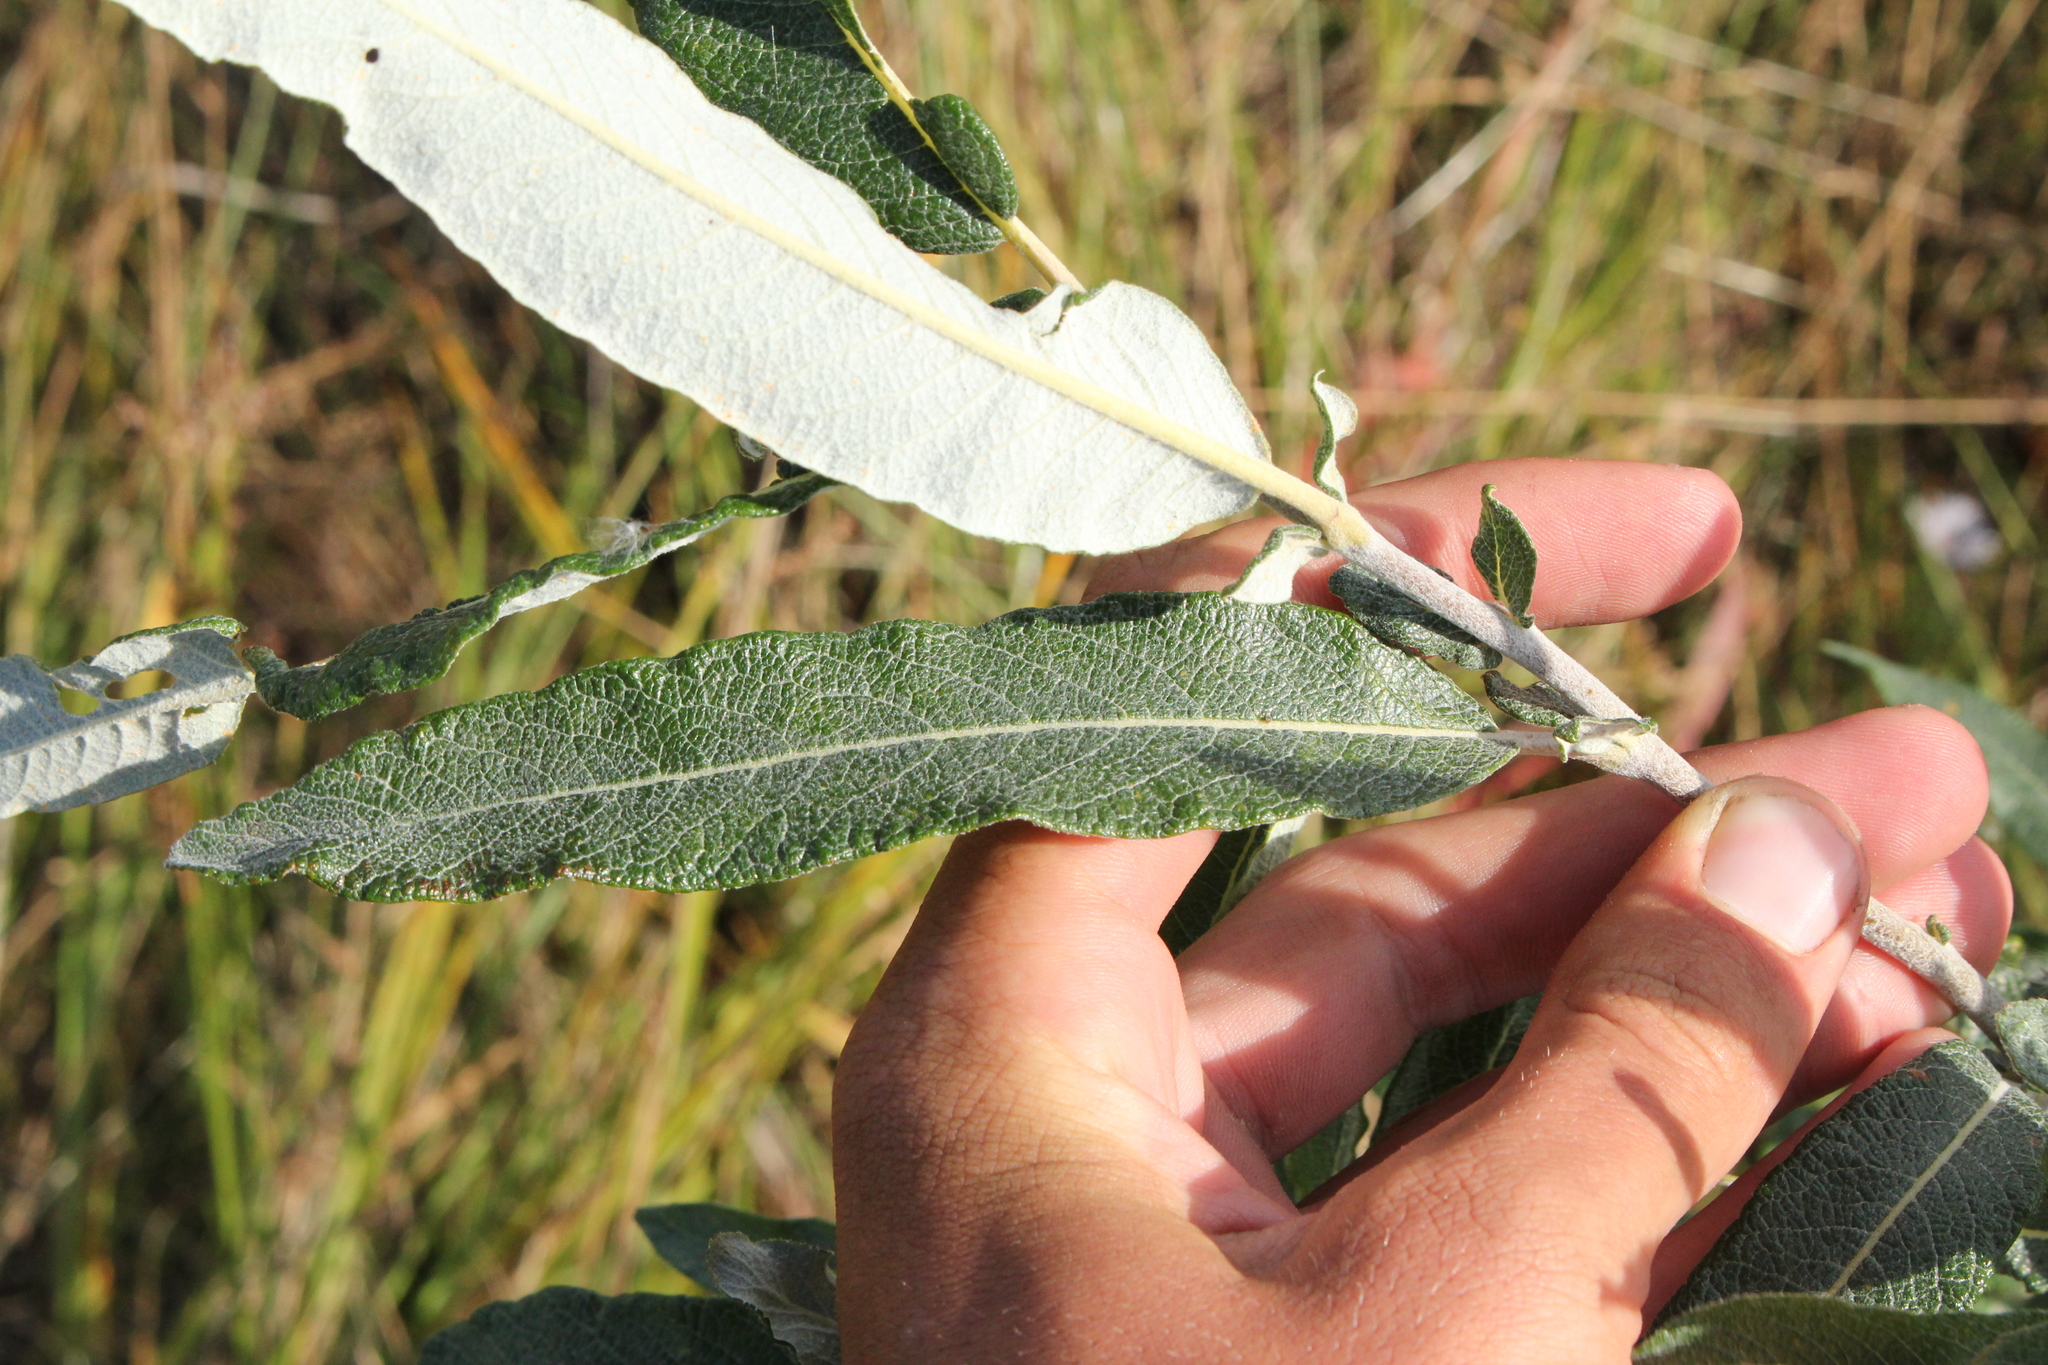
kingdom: Plantae
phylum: Tracheophyta
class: Magnoliopsida
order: Malpighiales
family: Salicaceae
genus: Salix
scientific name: Salix candida
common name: Hoary willow
